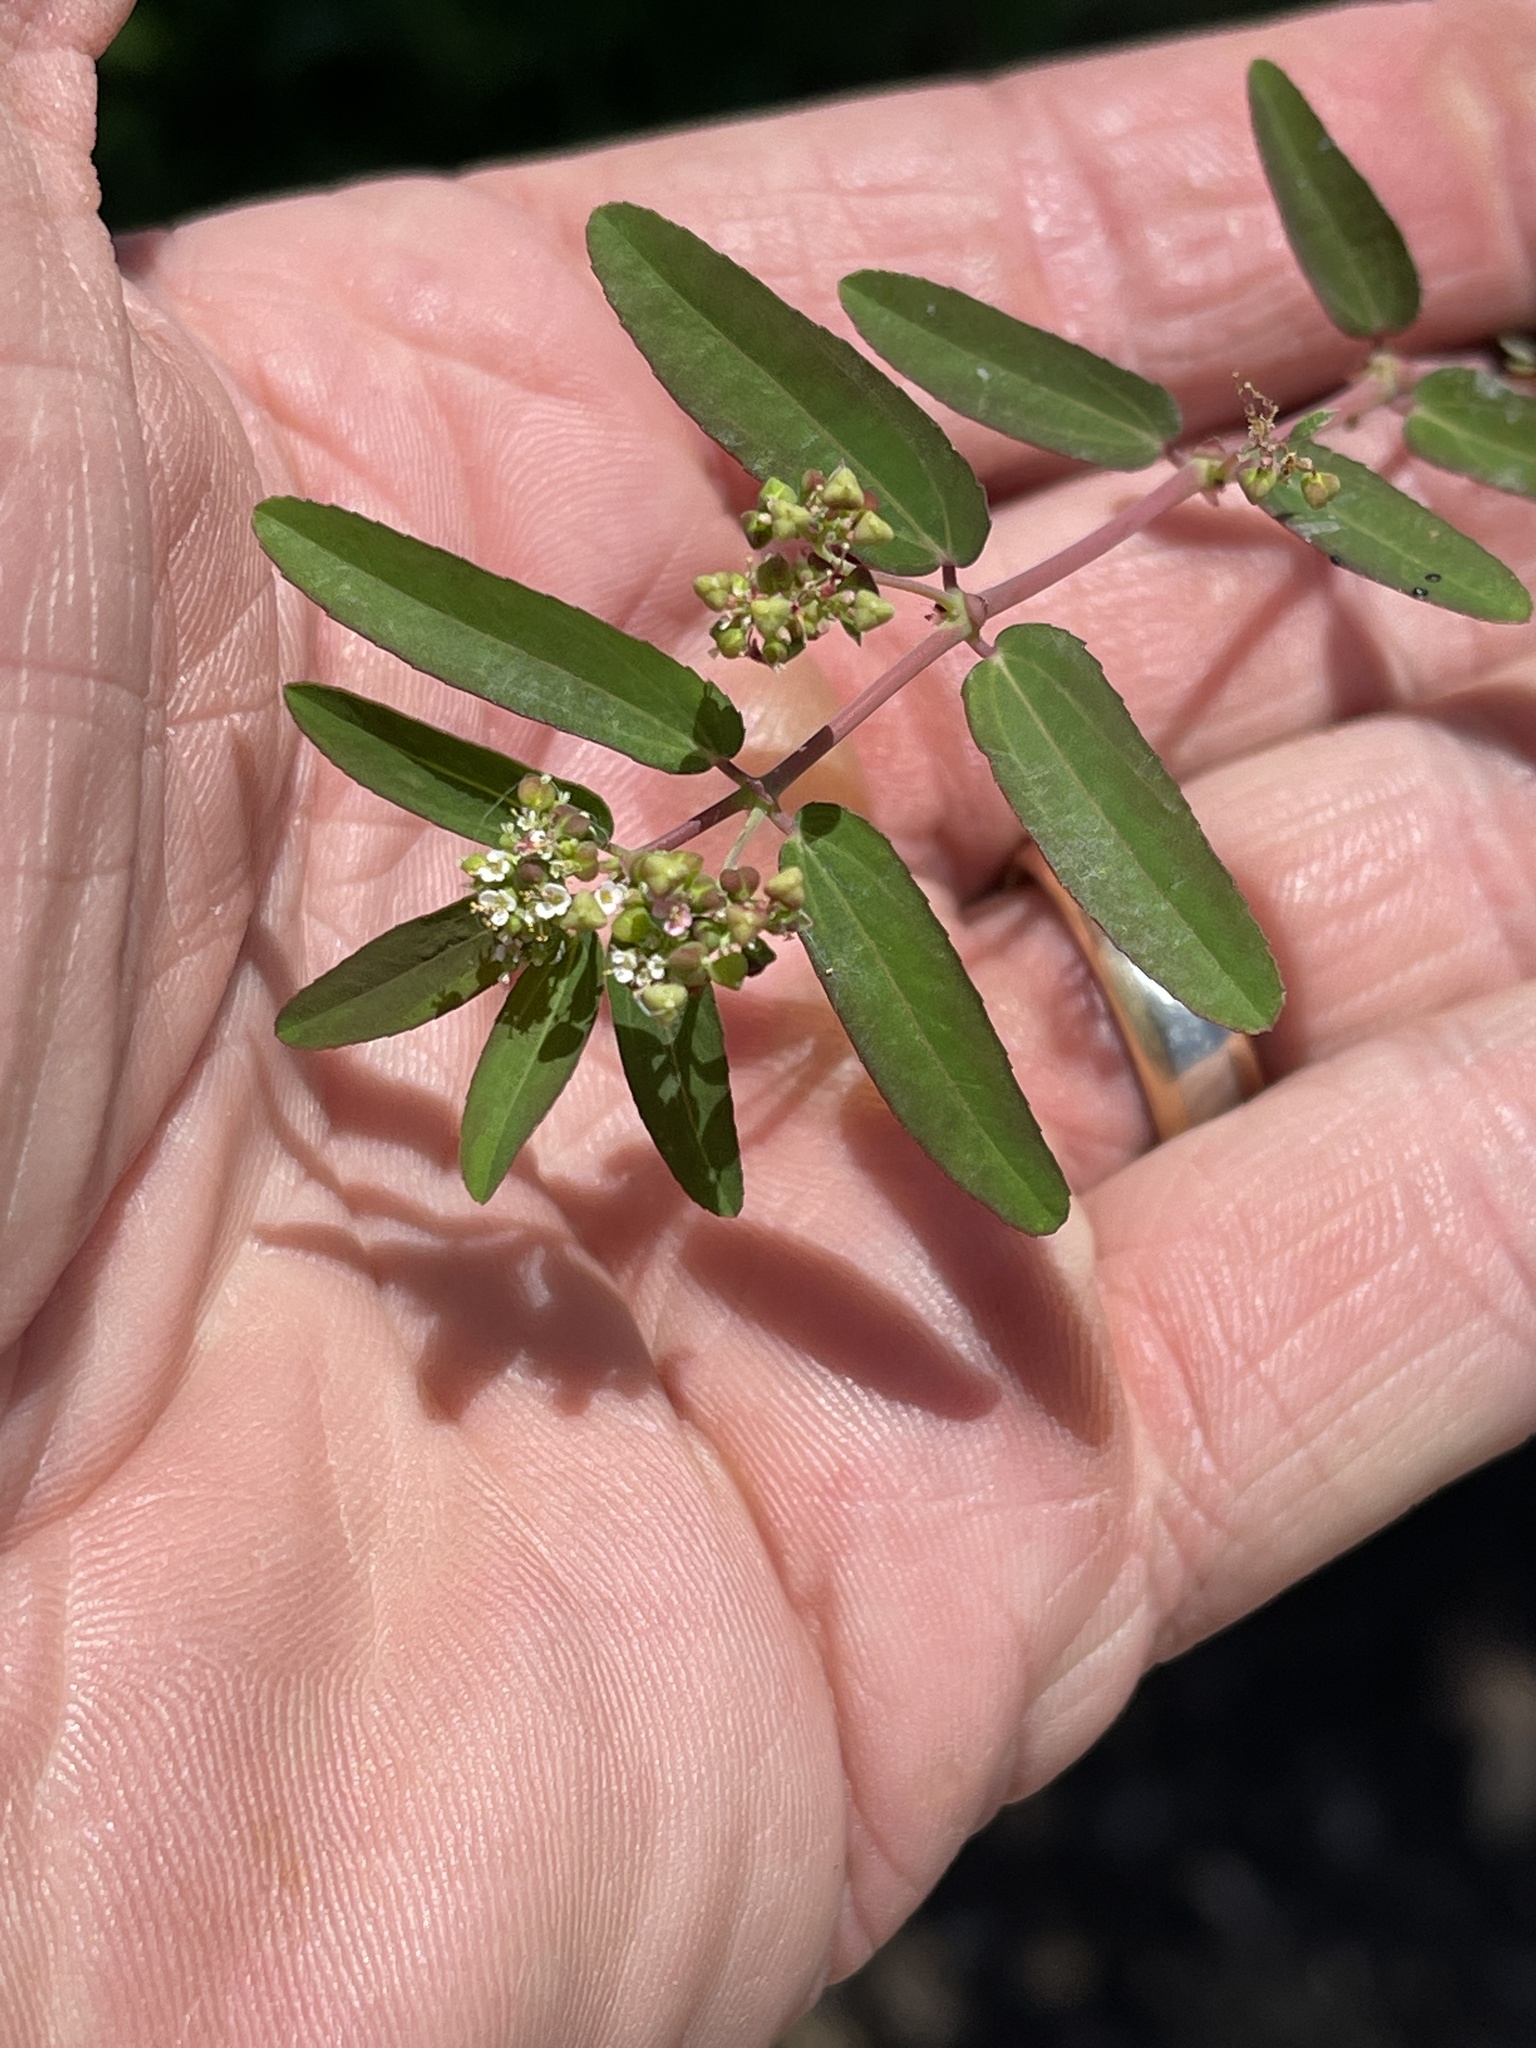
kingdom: Plantae
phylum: Tracheophyta
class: Magnoliopsida
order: Malpighiales
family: Euphorbiaceae
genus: Euphorbia
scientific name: Euphorbia hypericifolia
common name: Graceful sandmat
